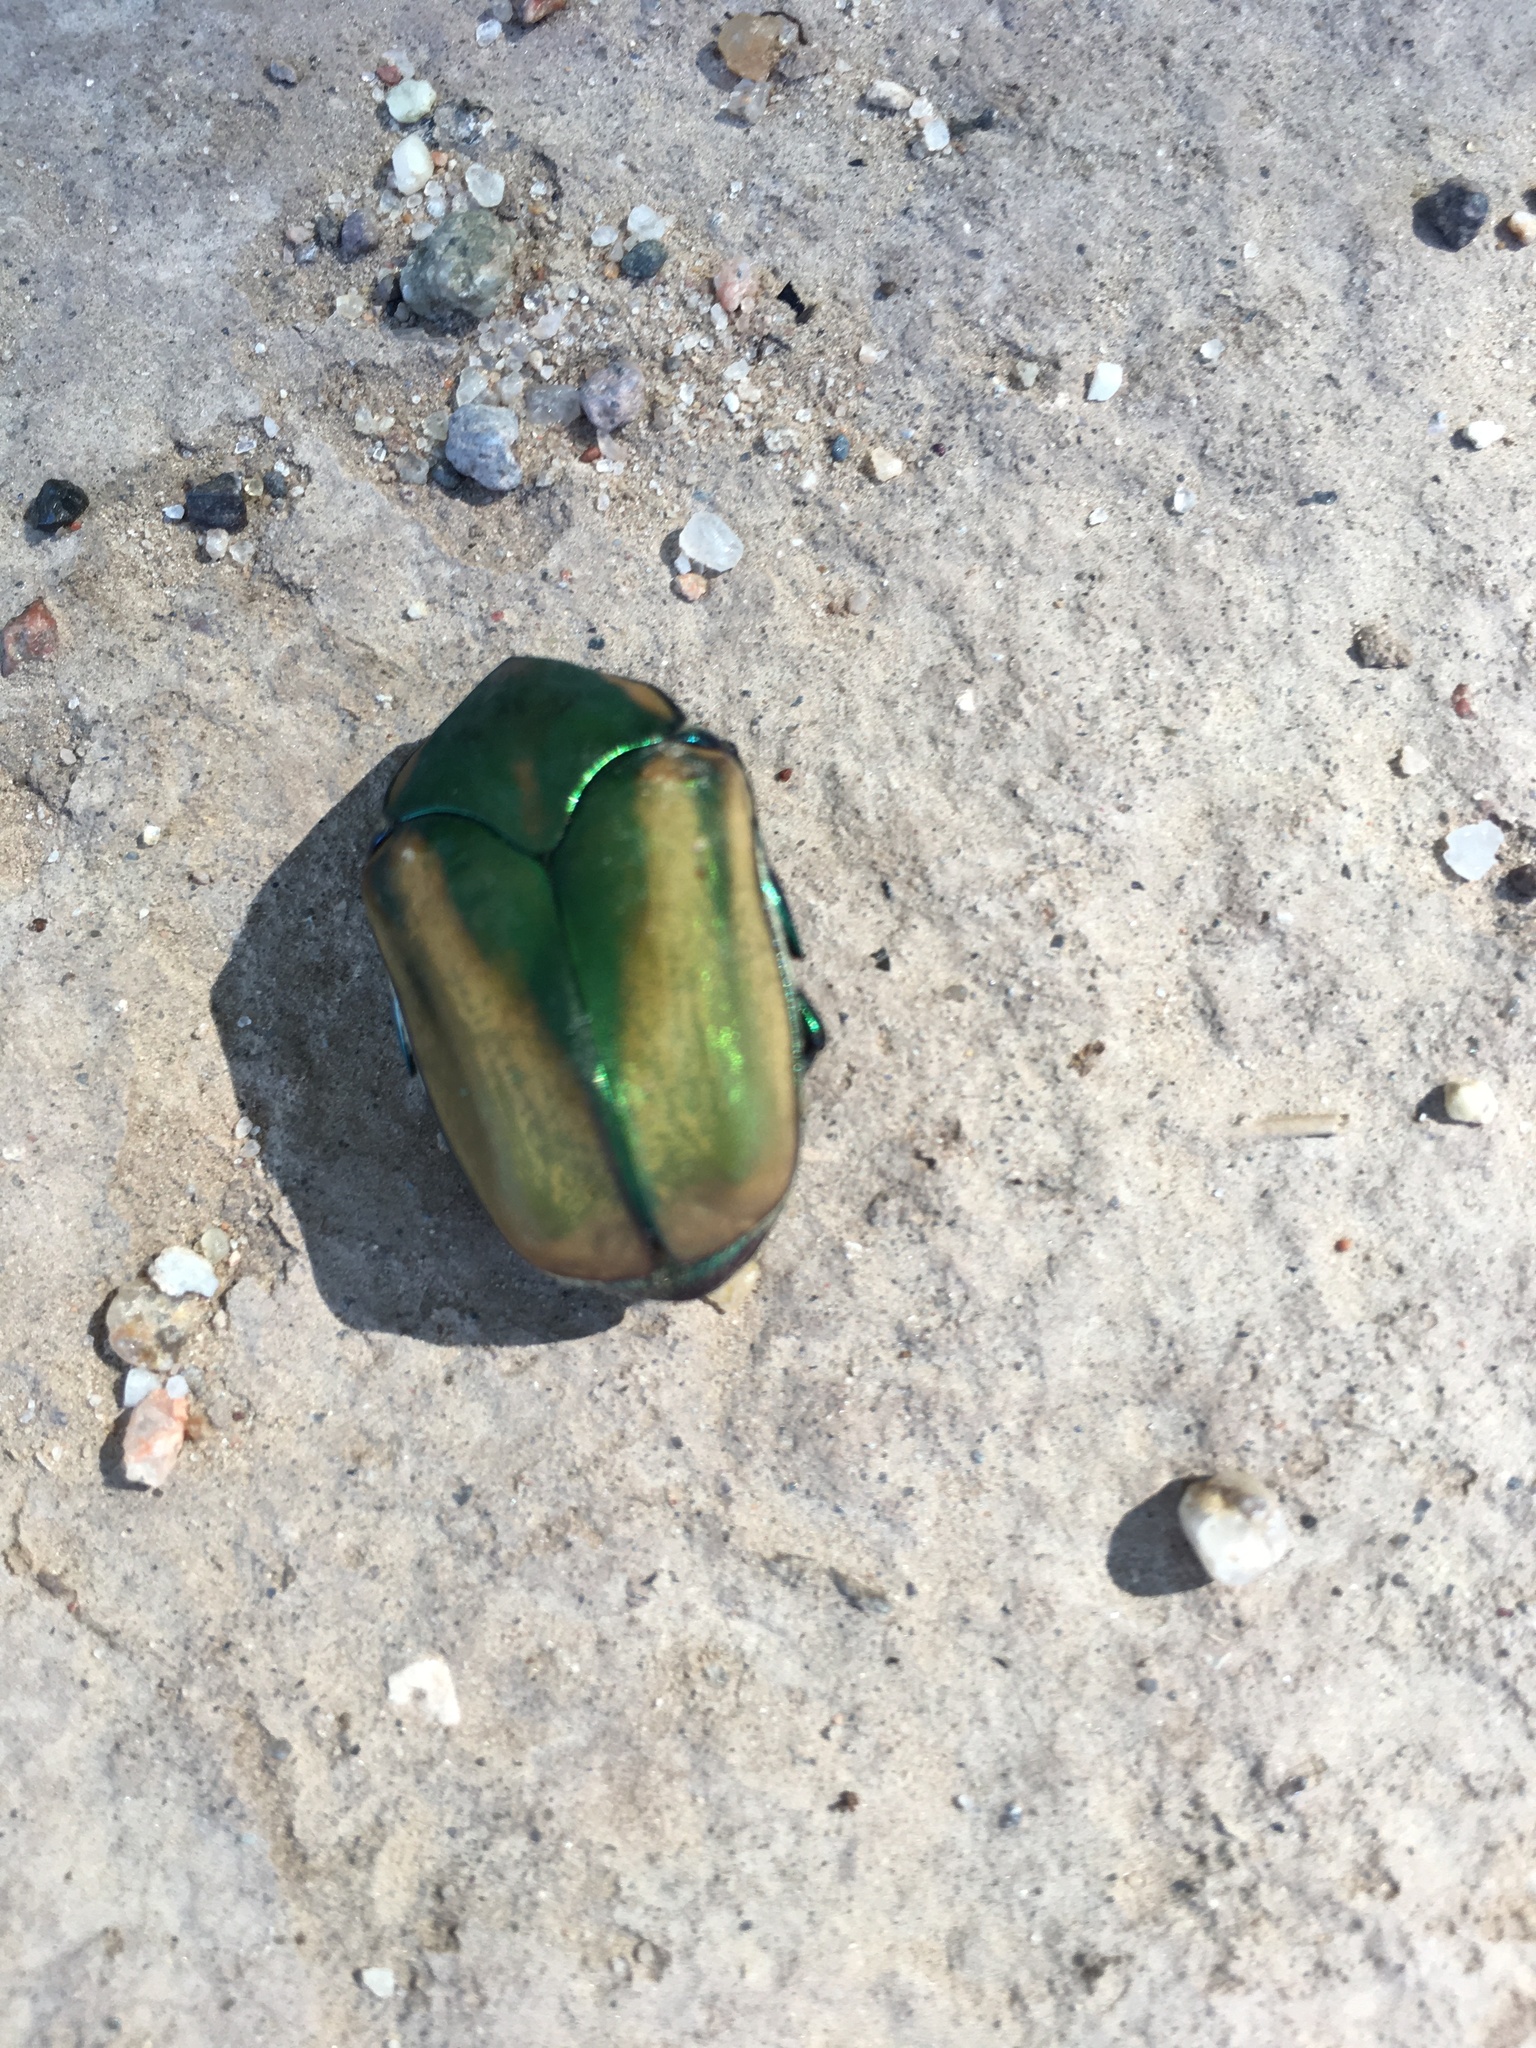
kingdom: Animalia
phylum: Arthropoda
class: Insecta
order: Coleoptera
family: Scarabaeidae
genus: Cotinis
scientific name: Cotinis mutabilis
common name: Figeater beetle
